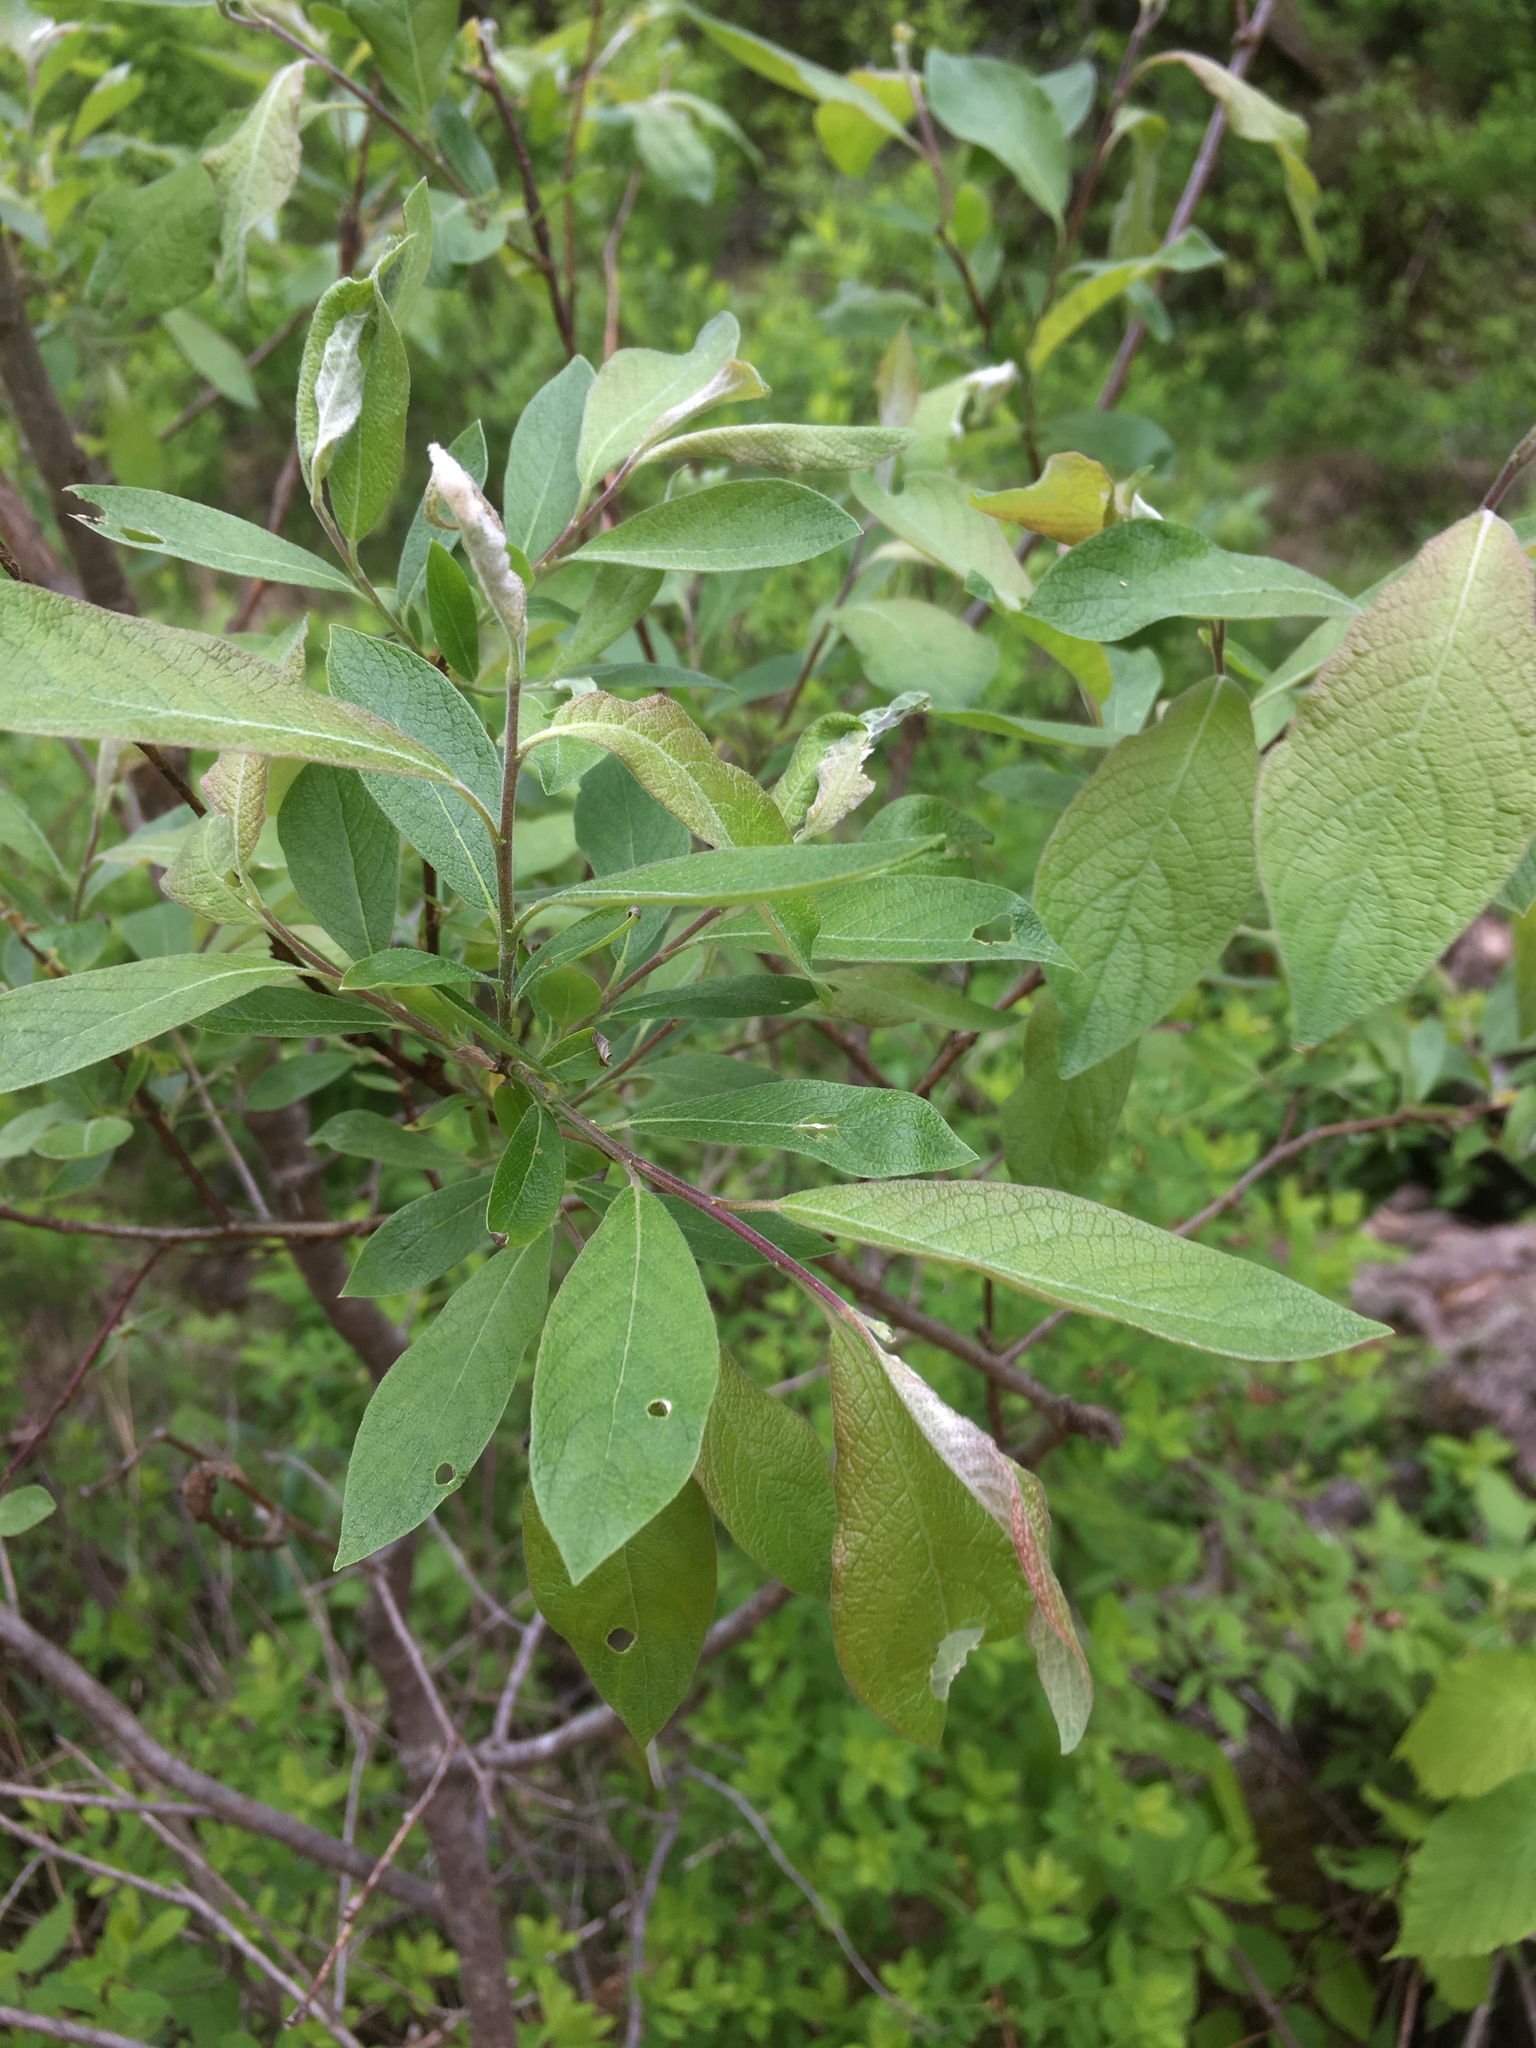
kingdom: Plantae
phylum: Tracheophyta
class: Magnoliopsida
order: Malpighiales
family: Salicaceae
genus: Salix
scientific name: Salix bebbiana
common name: Bebb's willow
